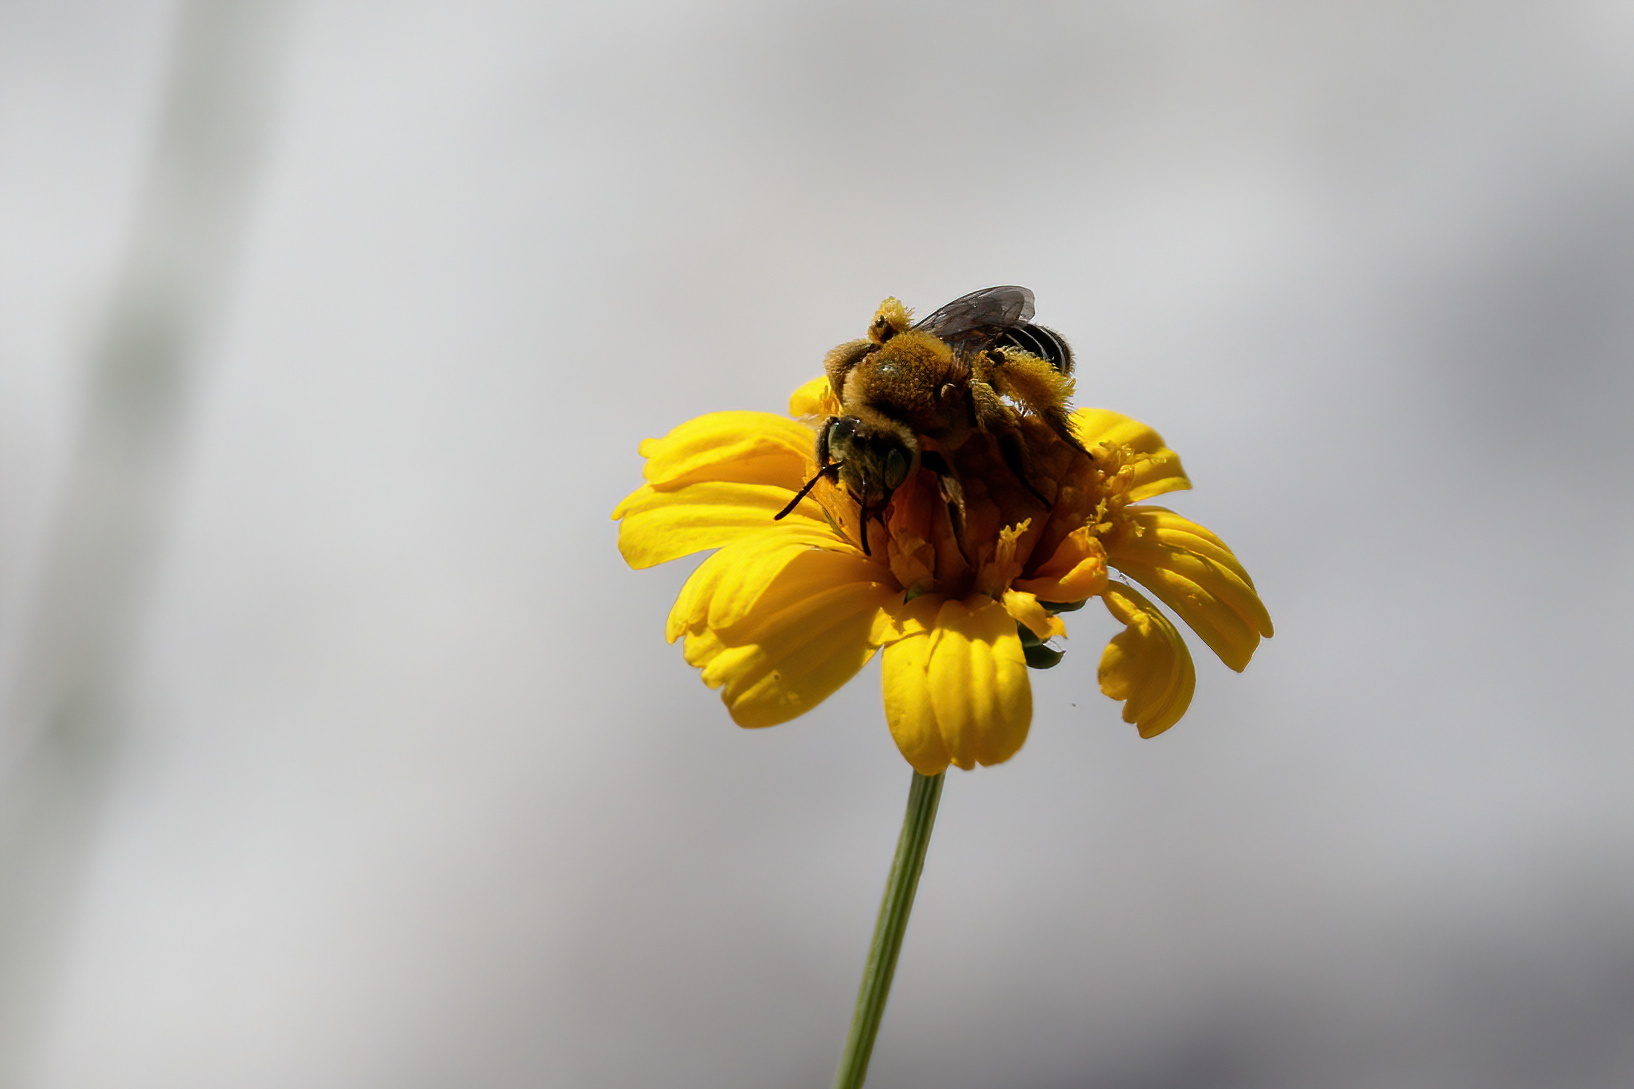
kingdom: Animalia
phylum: Arthropoda
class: Insecta
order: Hymenoptera
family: Melittidae
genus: Hesperapis
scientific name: Hesperapis oraria
